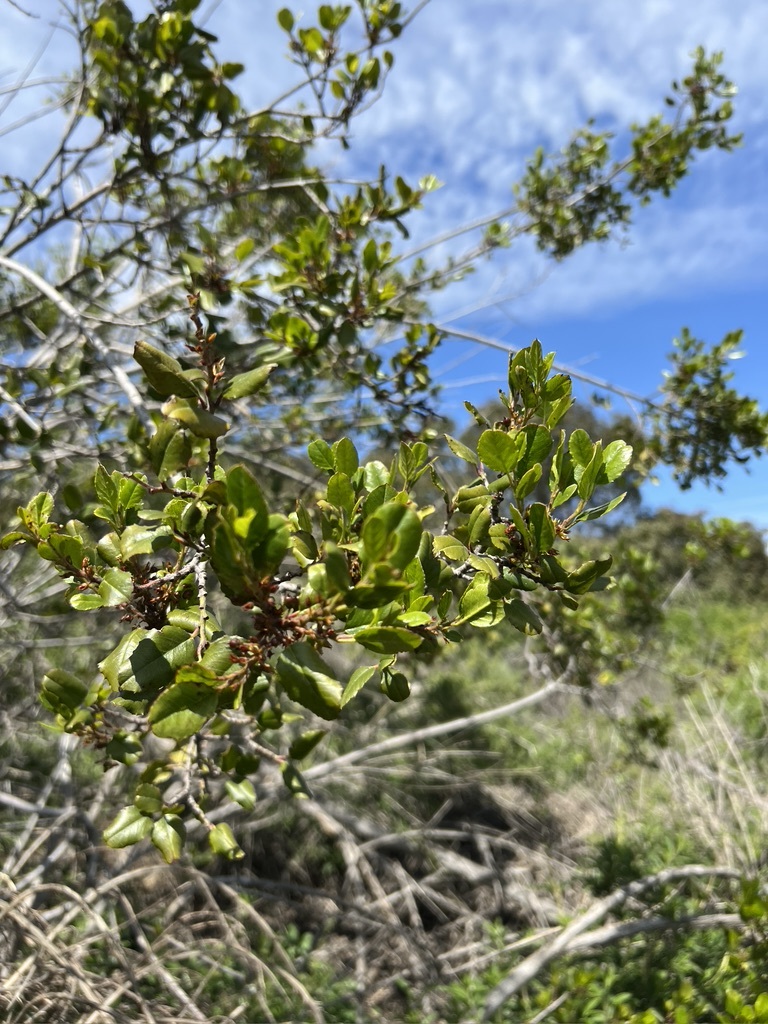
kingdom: Plantae
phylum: Tracheophyta
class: Magnoliopsida
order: Rosales
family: Rhamnaceae
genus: Endotropis
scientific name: Endotropis crocea
